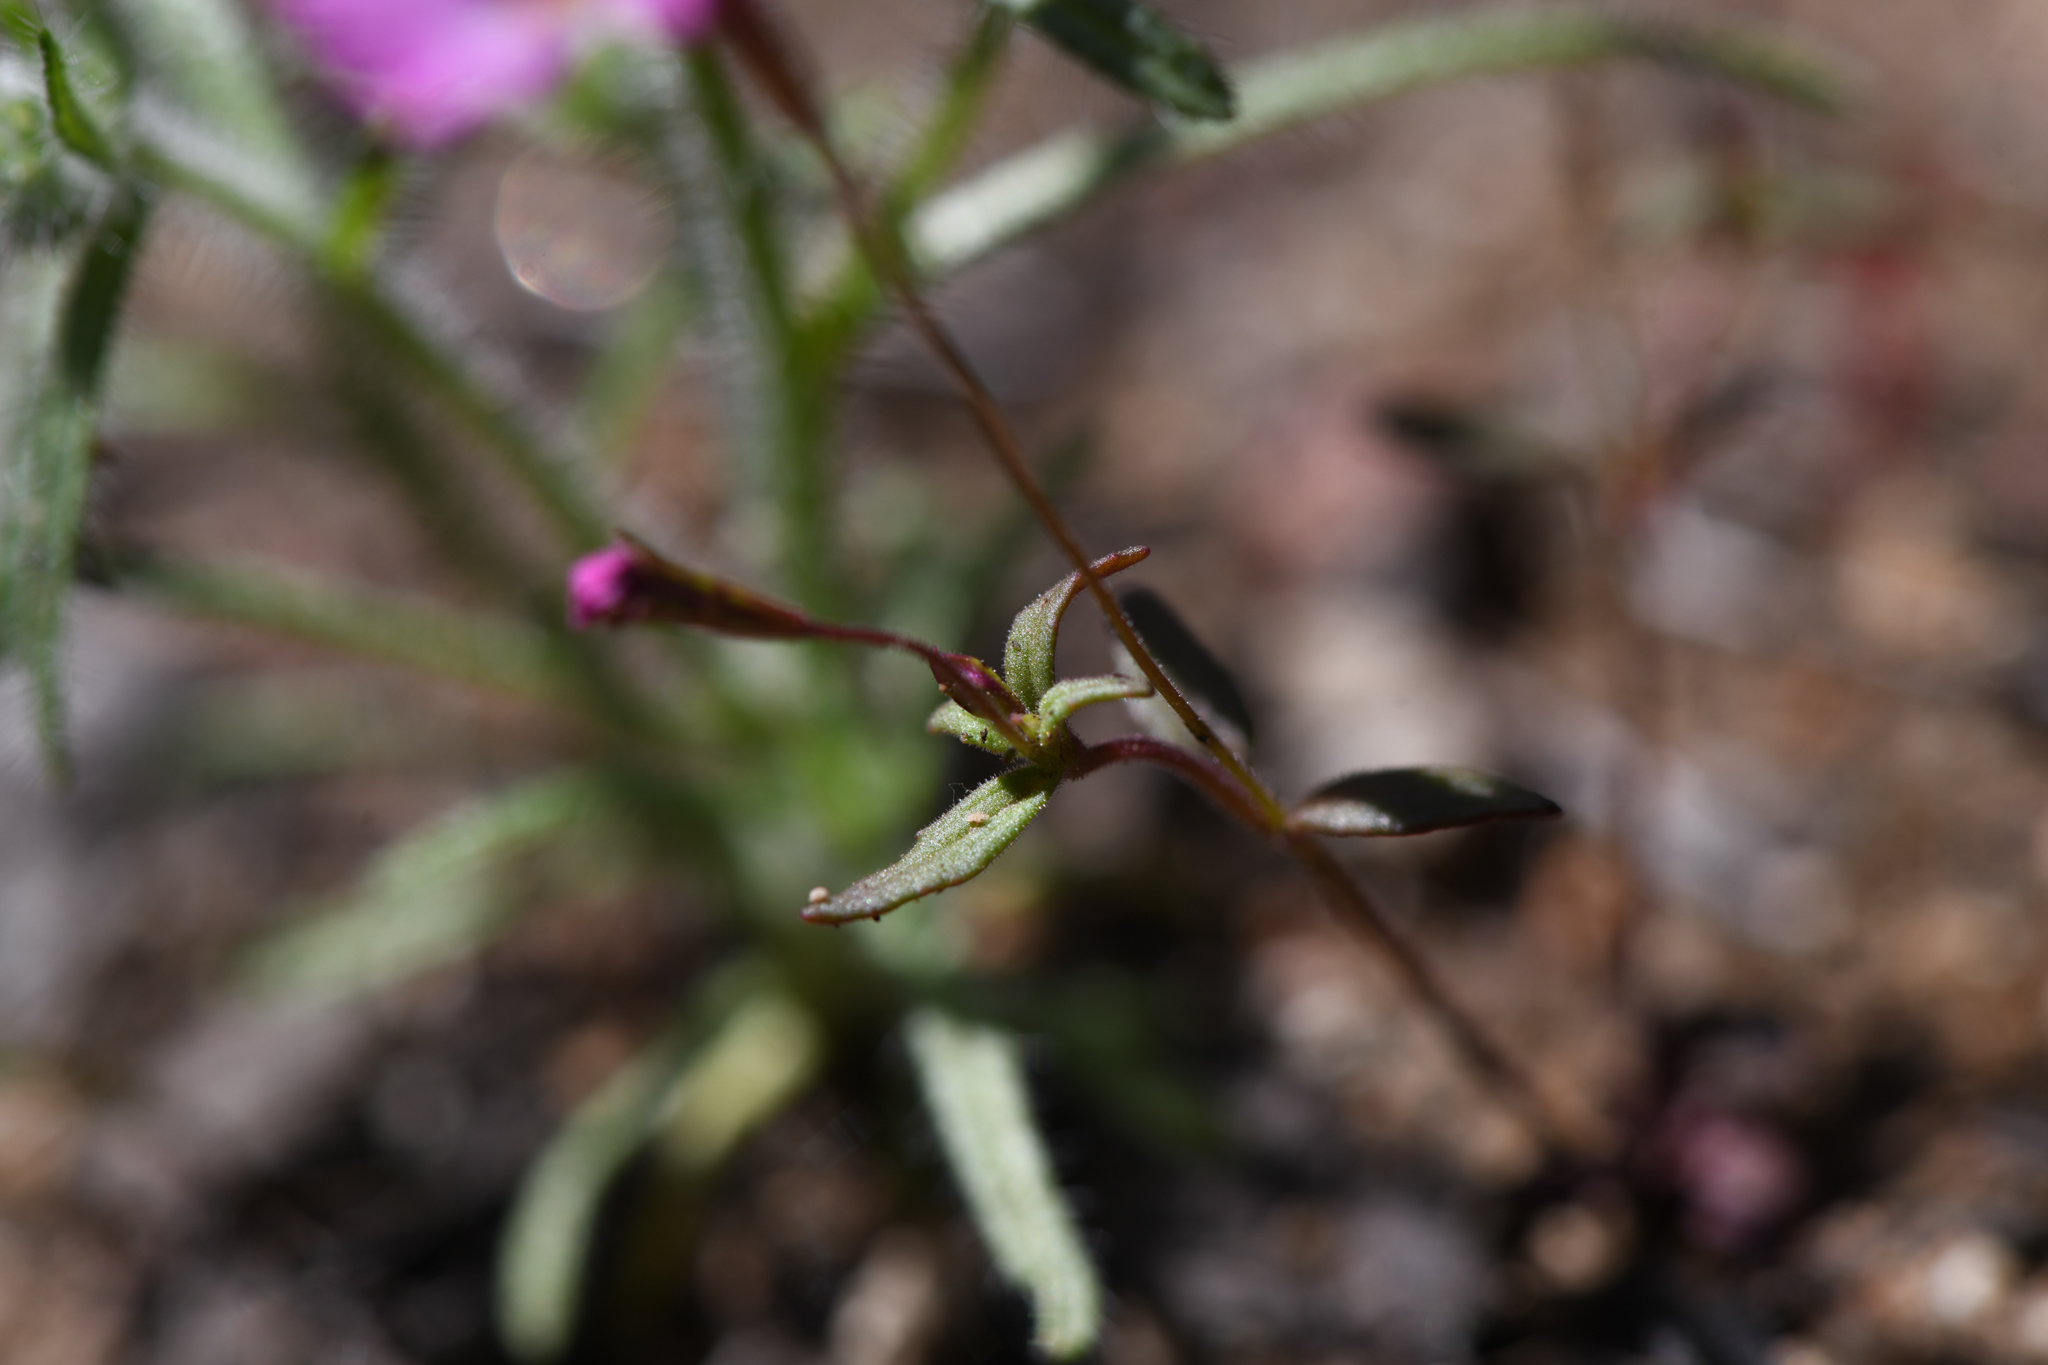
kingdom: Plantae
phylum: Tracheophyta
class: Magnoliopsida
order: Lamiales
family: Phrymaceae
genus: Erythranthe
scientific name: Erythranthe diffusa
